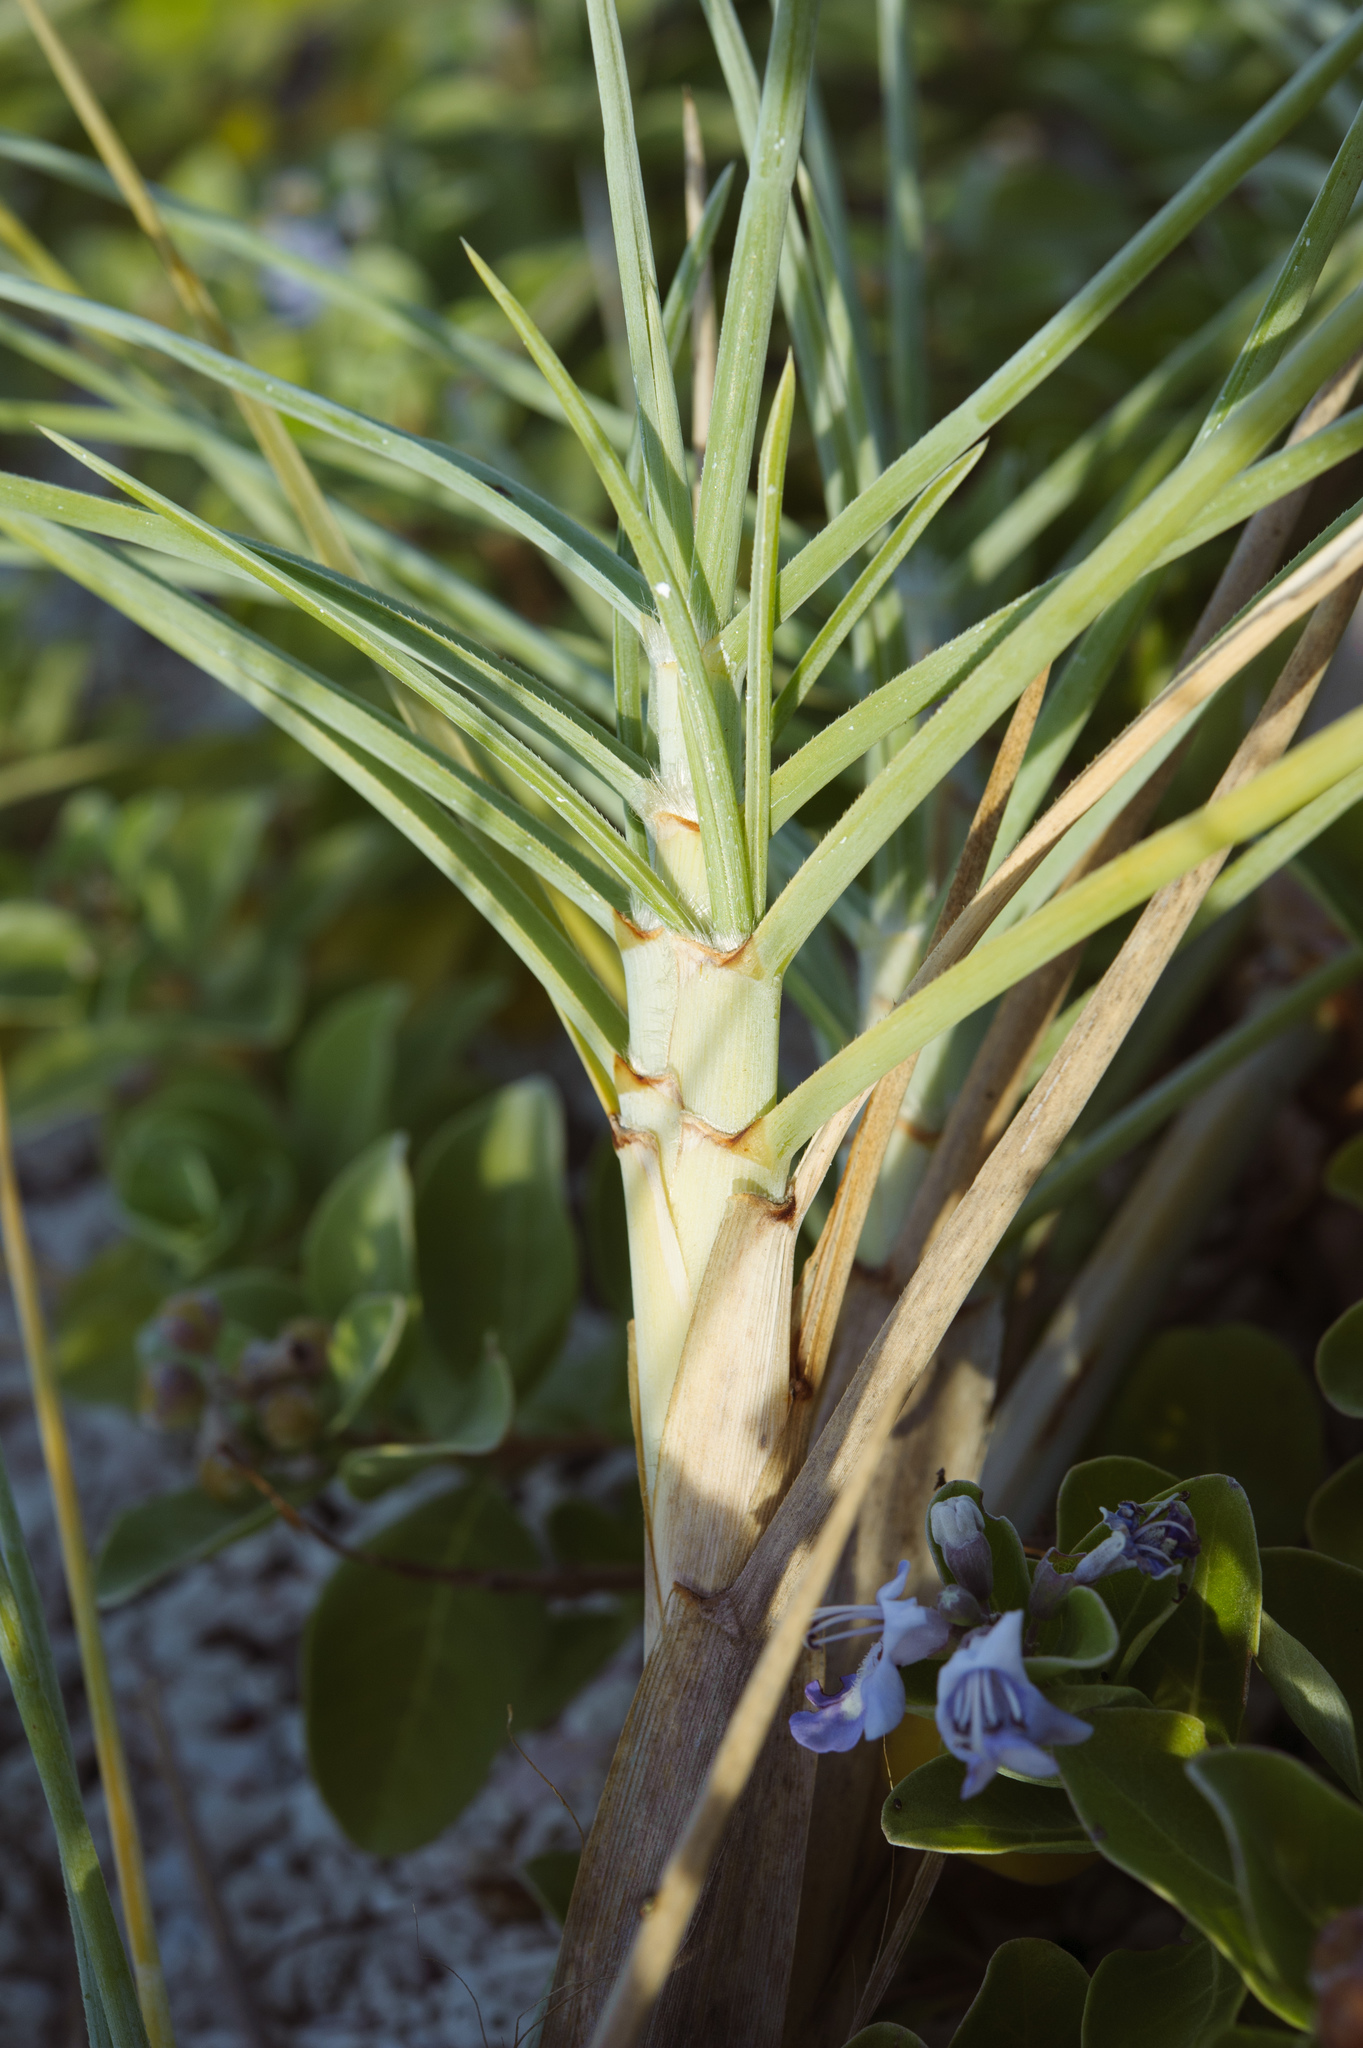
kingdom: Plantae
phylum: Tracheophyta
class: Liliopsida
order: Poales
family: Poaceae
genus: Spinifex
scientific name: Spinifex littoreus
